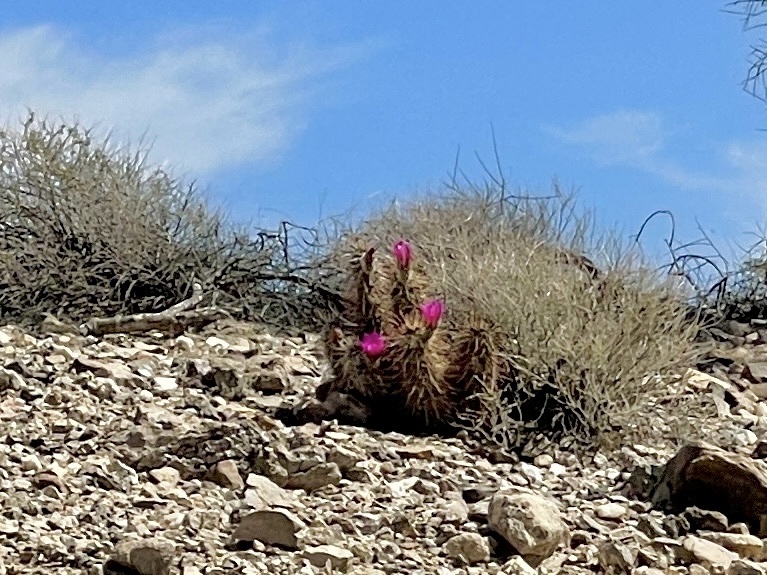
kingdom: Plantae
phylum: Tracheophyta
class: Magnoliopsida
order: Caryophyllales
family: Cactaceae
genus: Echinocereus
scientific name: Echinocereus engelmannii
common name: Engelmann's hedgehog cactus
